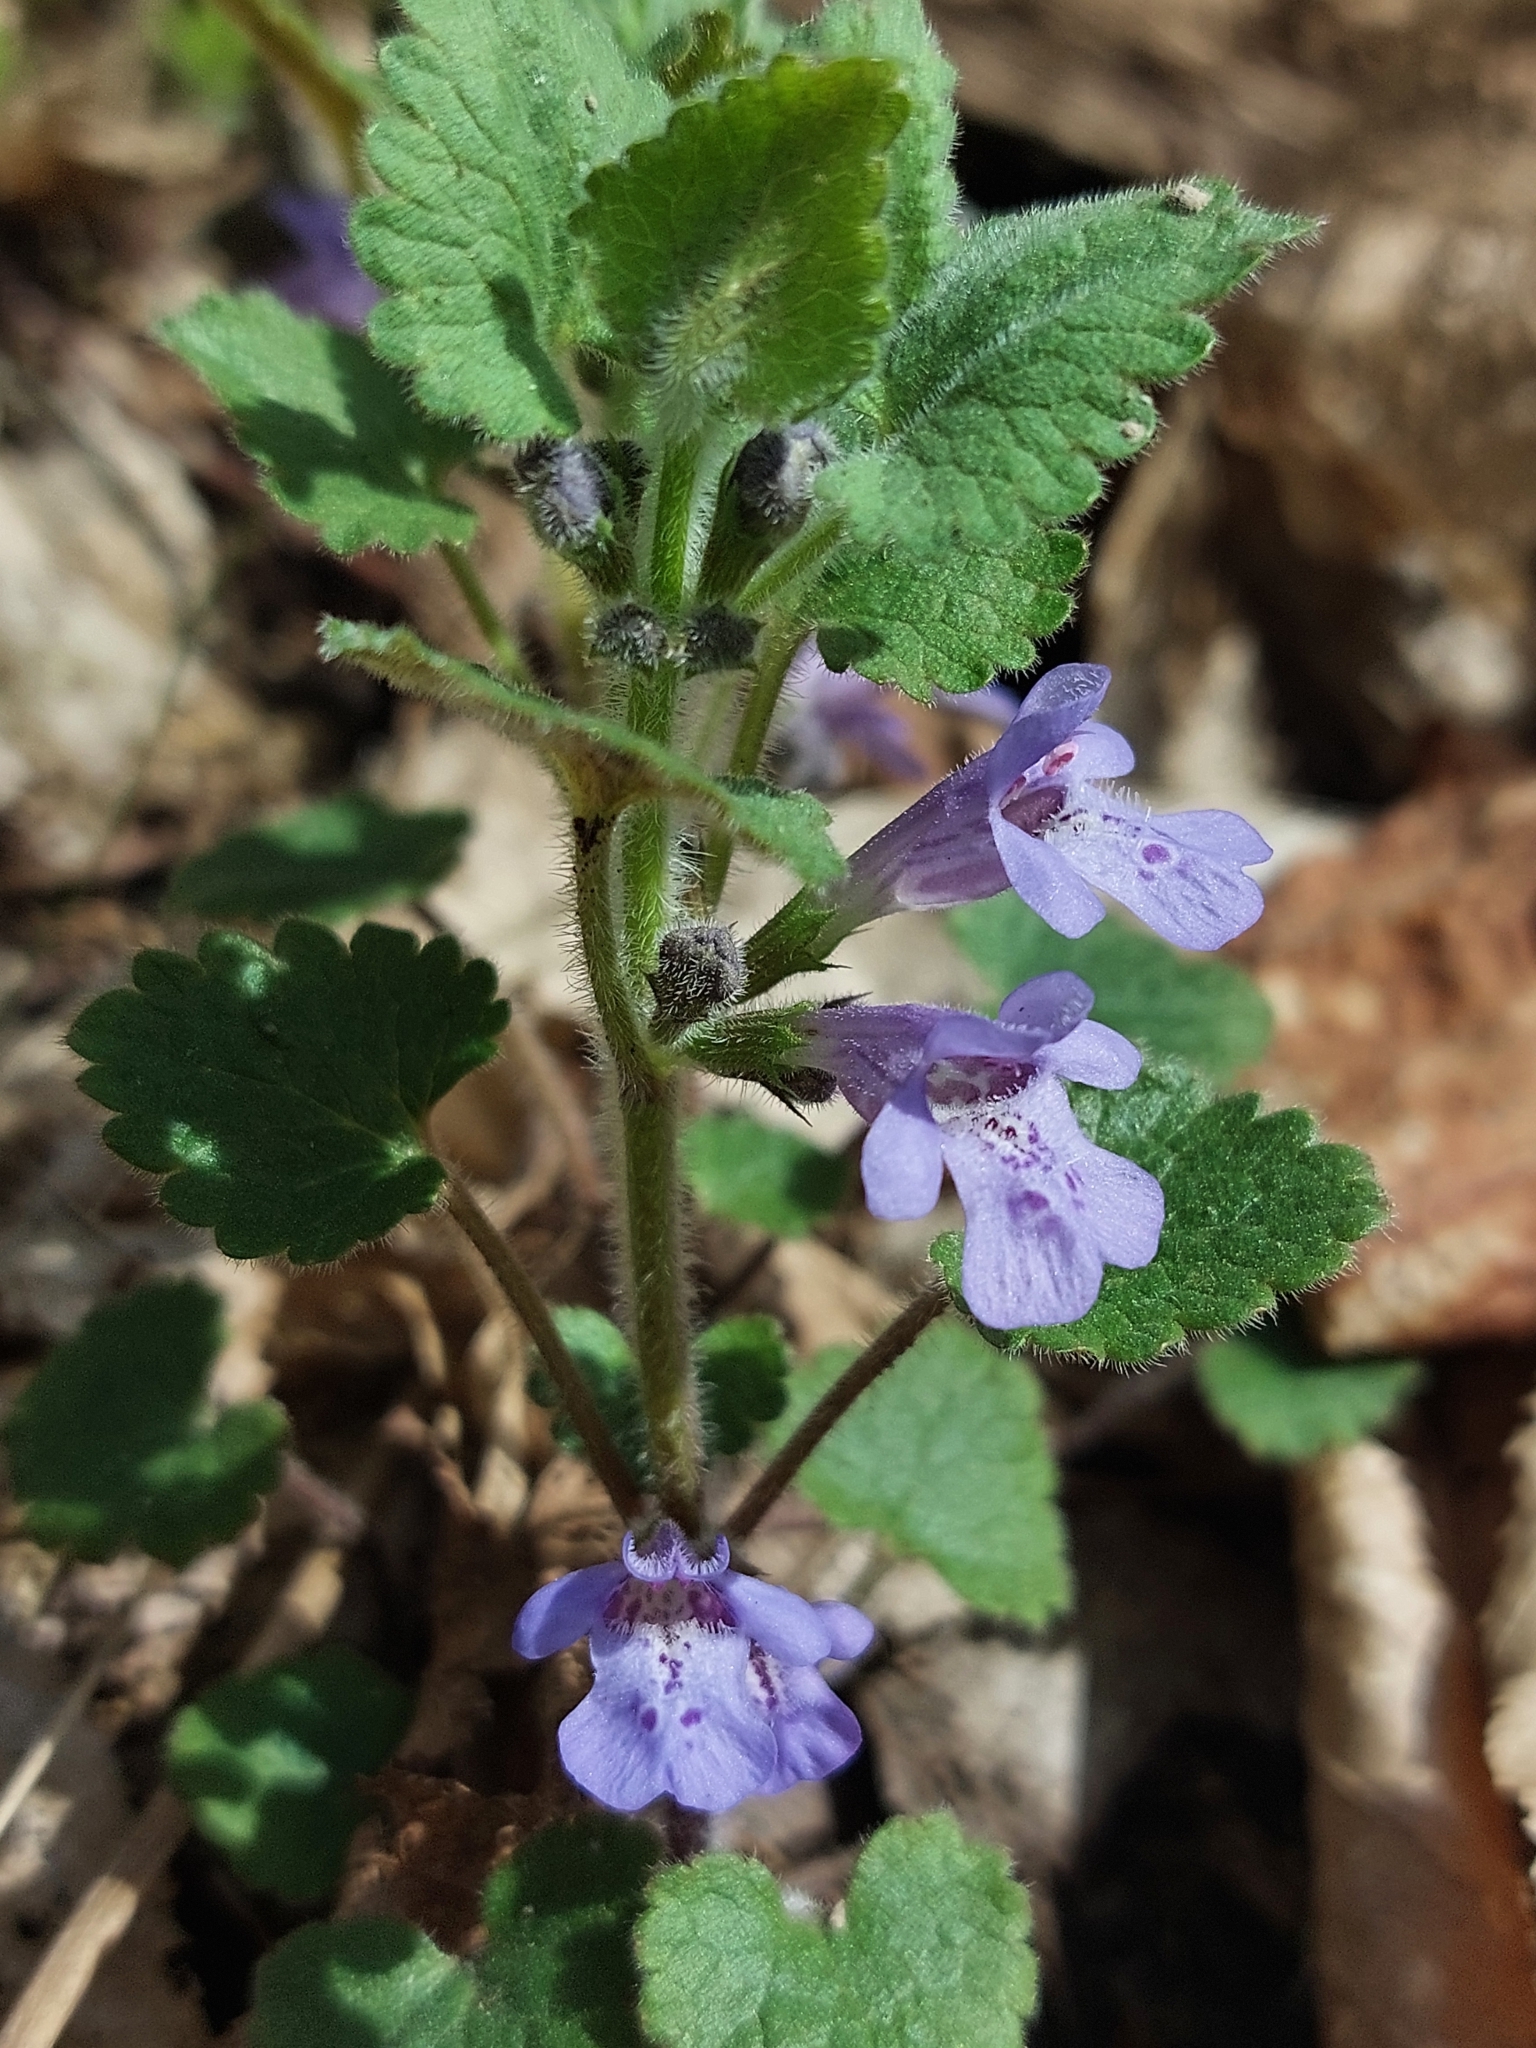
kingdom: Plantae
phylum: Tracheophyta
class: Magnoliopsida
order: Lamiales
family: Lamiaceae
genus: Glechoma
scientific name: Glechoma hirsuta
